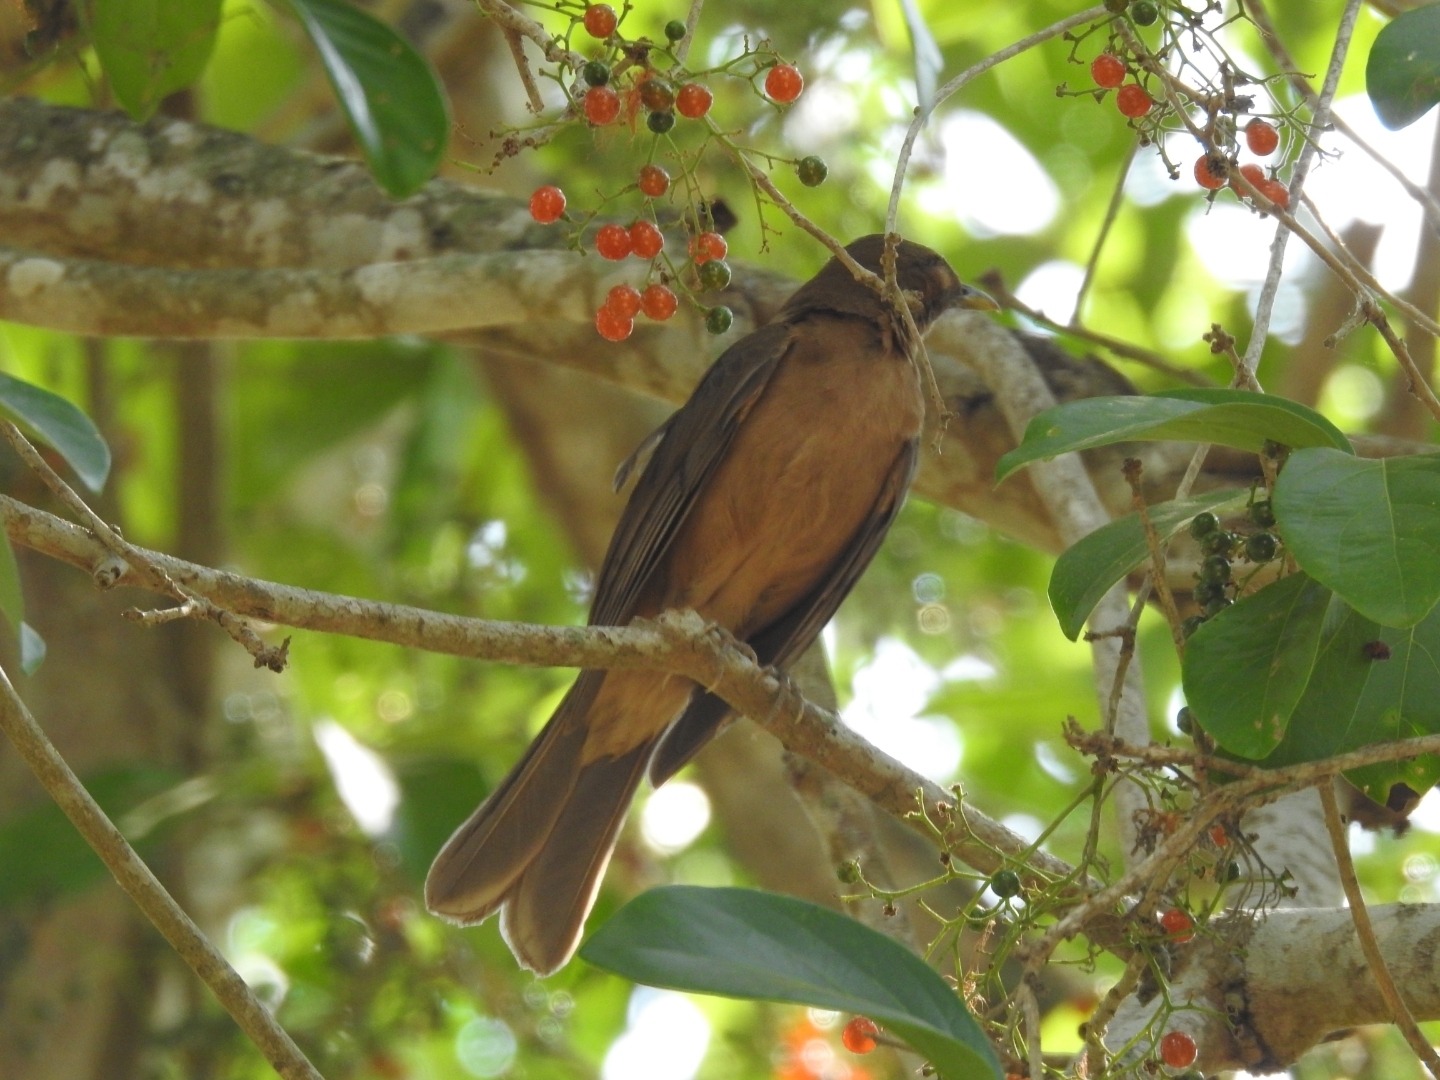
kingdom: Animalia
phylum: Chordata
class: Aves
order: Passeriformes
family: Turdidae
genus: Turdus
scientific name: Turdus grayi
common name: Clay-colored thrush
